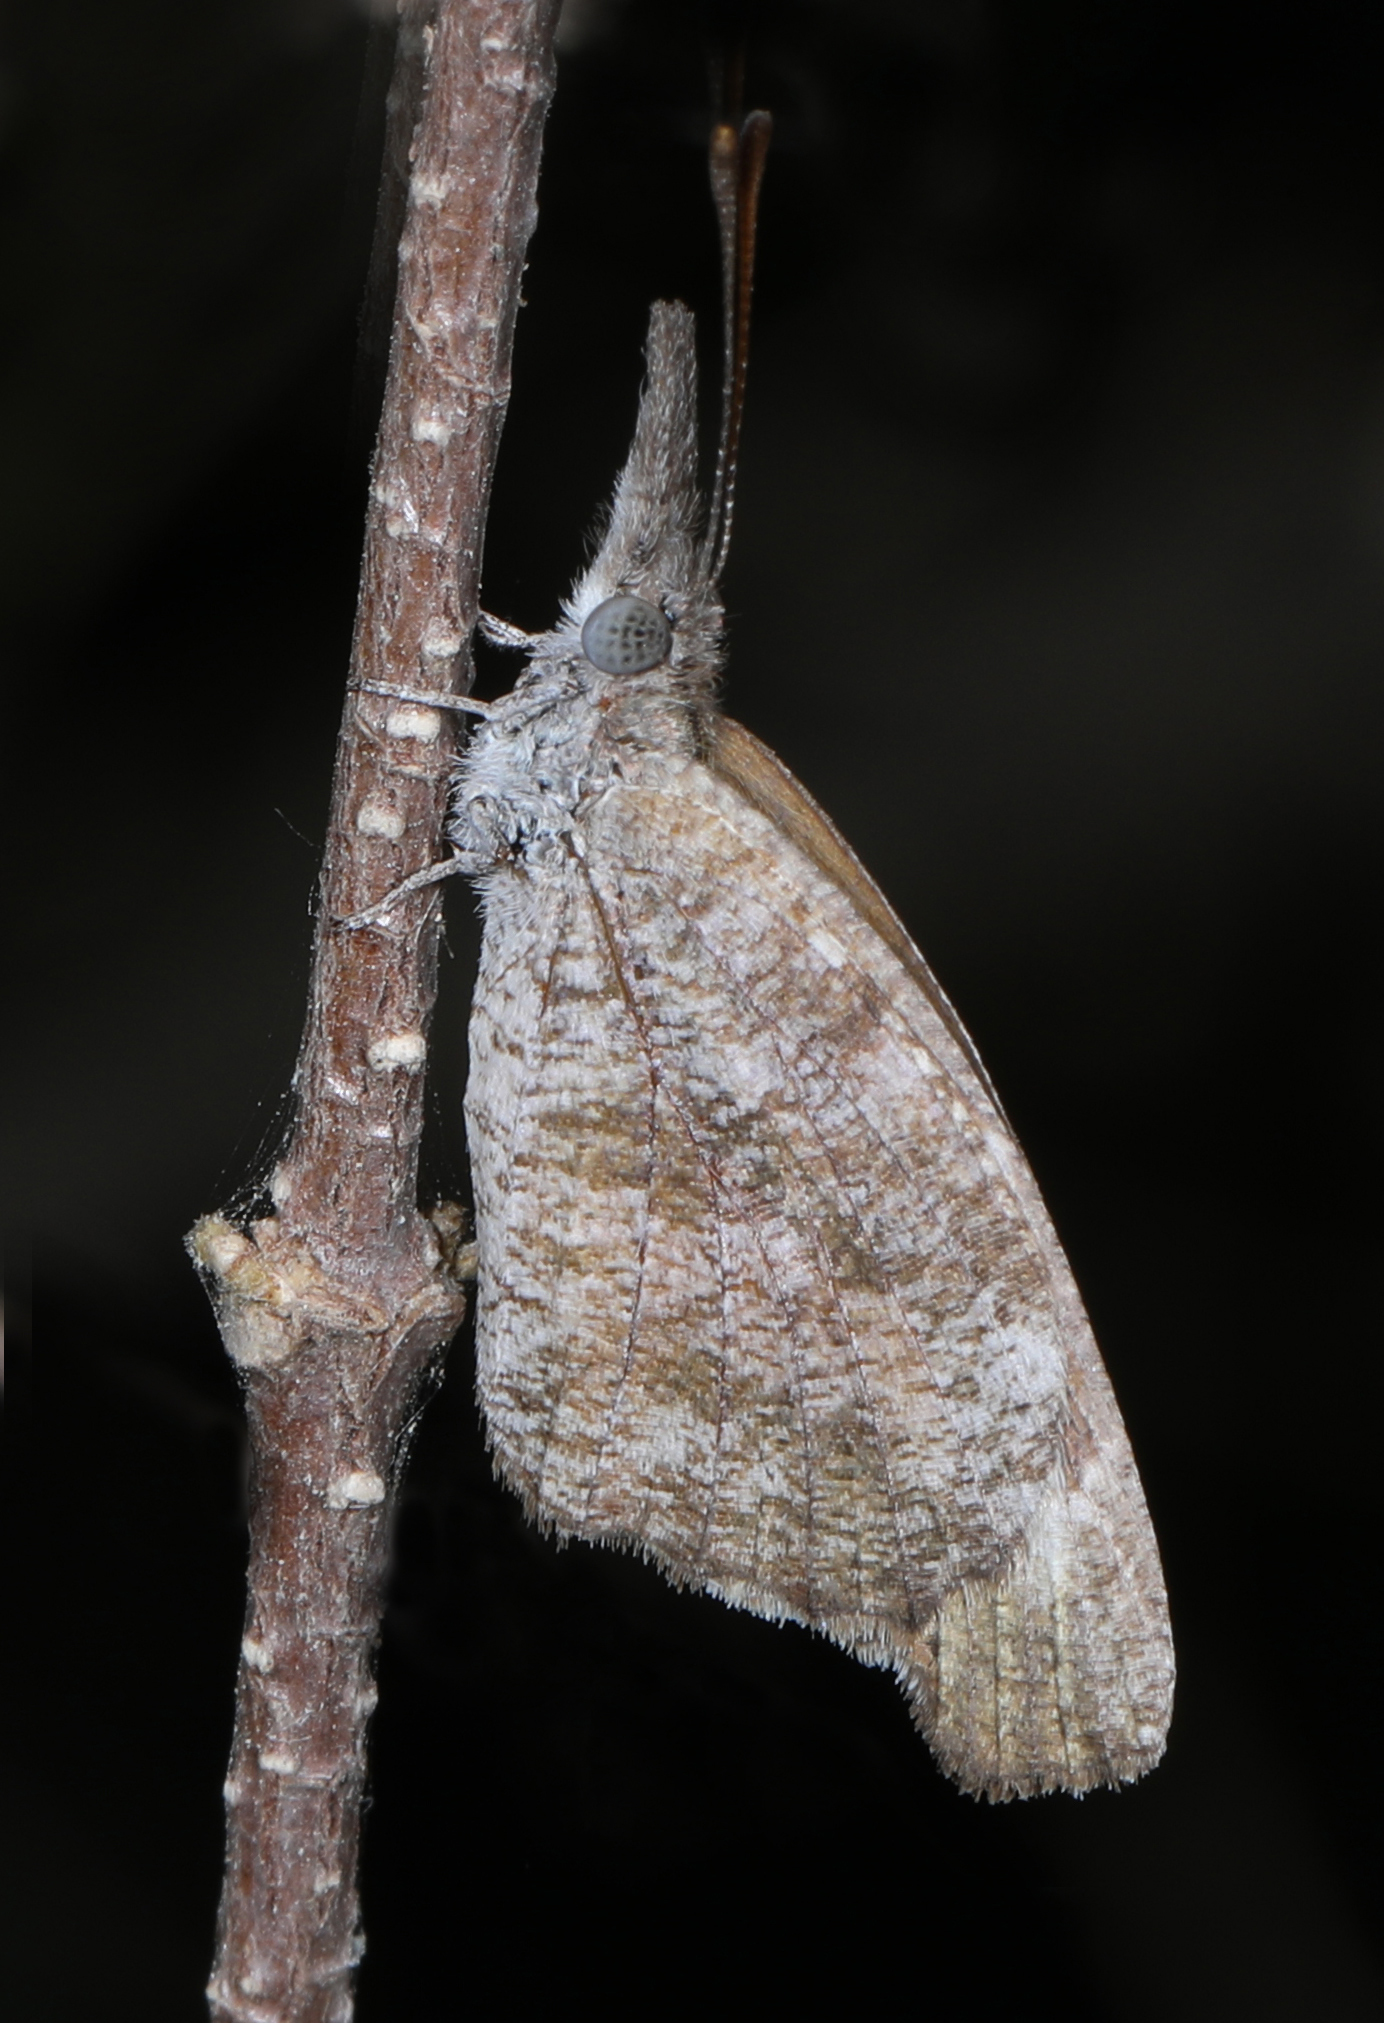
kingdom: Animalia
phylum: Arthropoda
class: Insecta
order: Lepidoptera
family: Nymphalidae
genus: Libytheana
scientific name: Libytheana carinenta
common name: American snout
